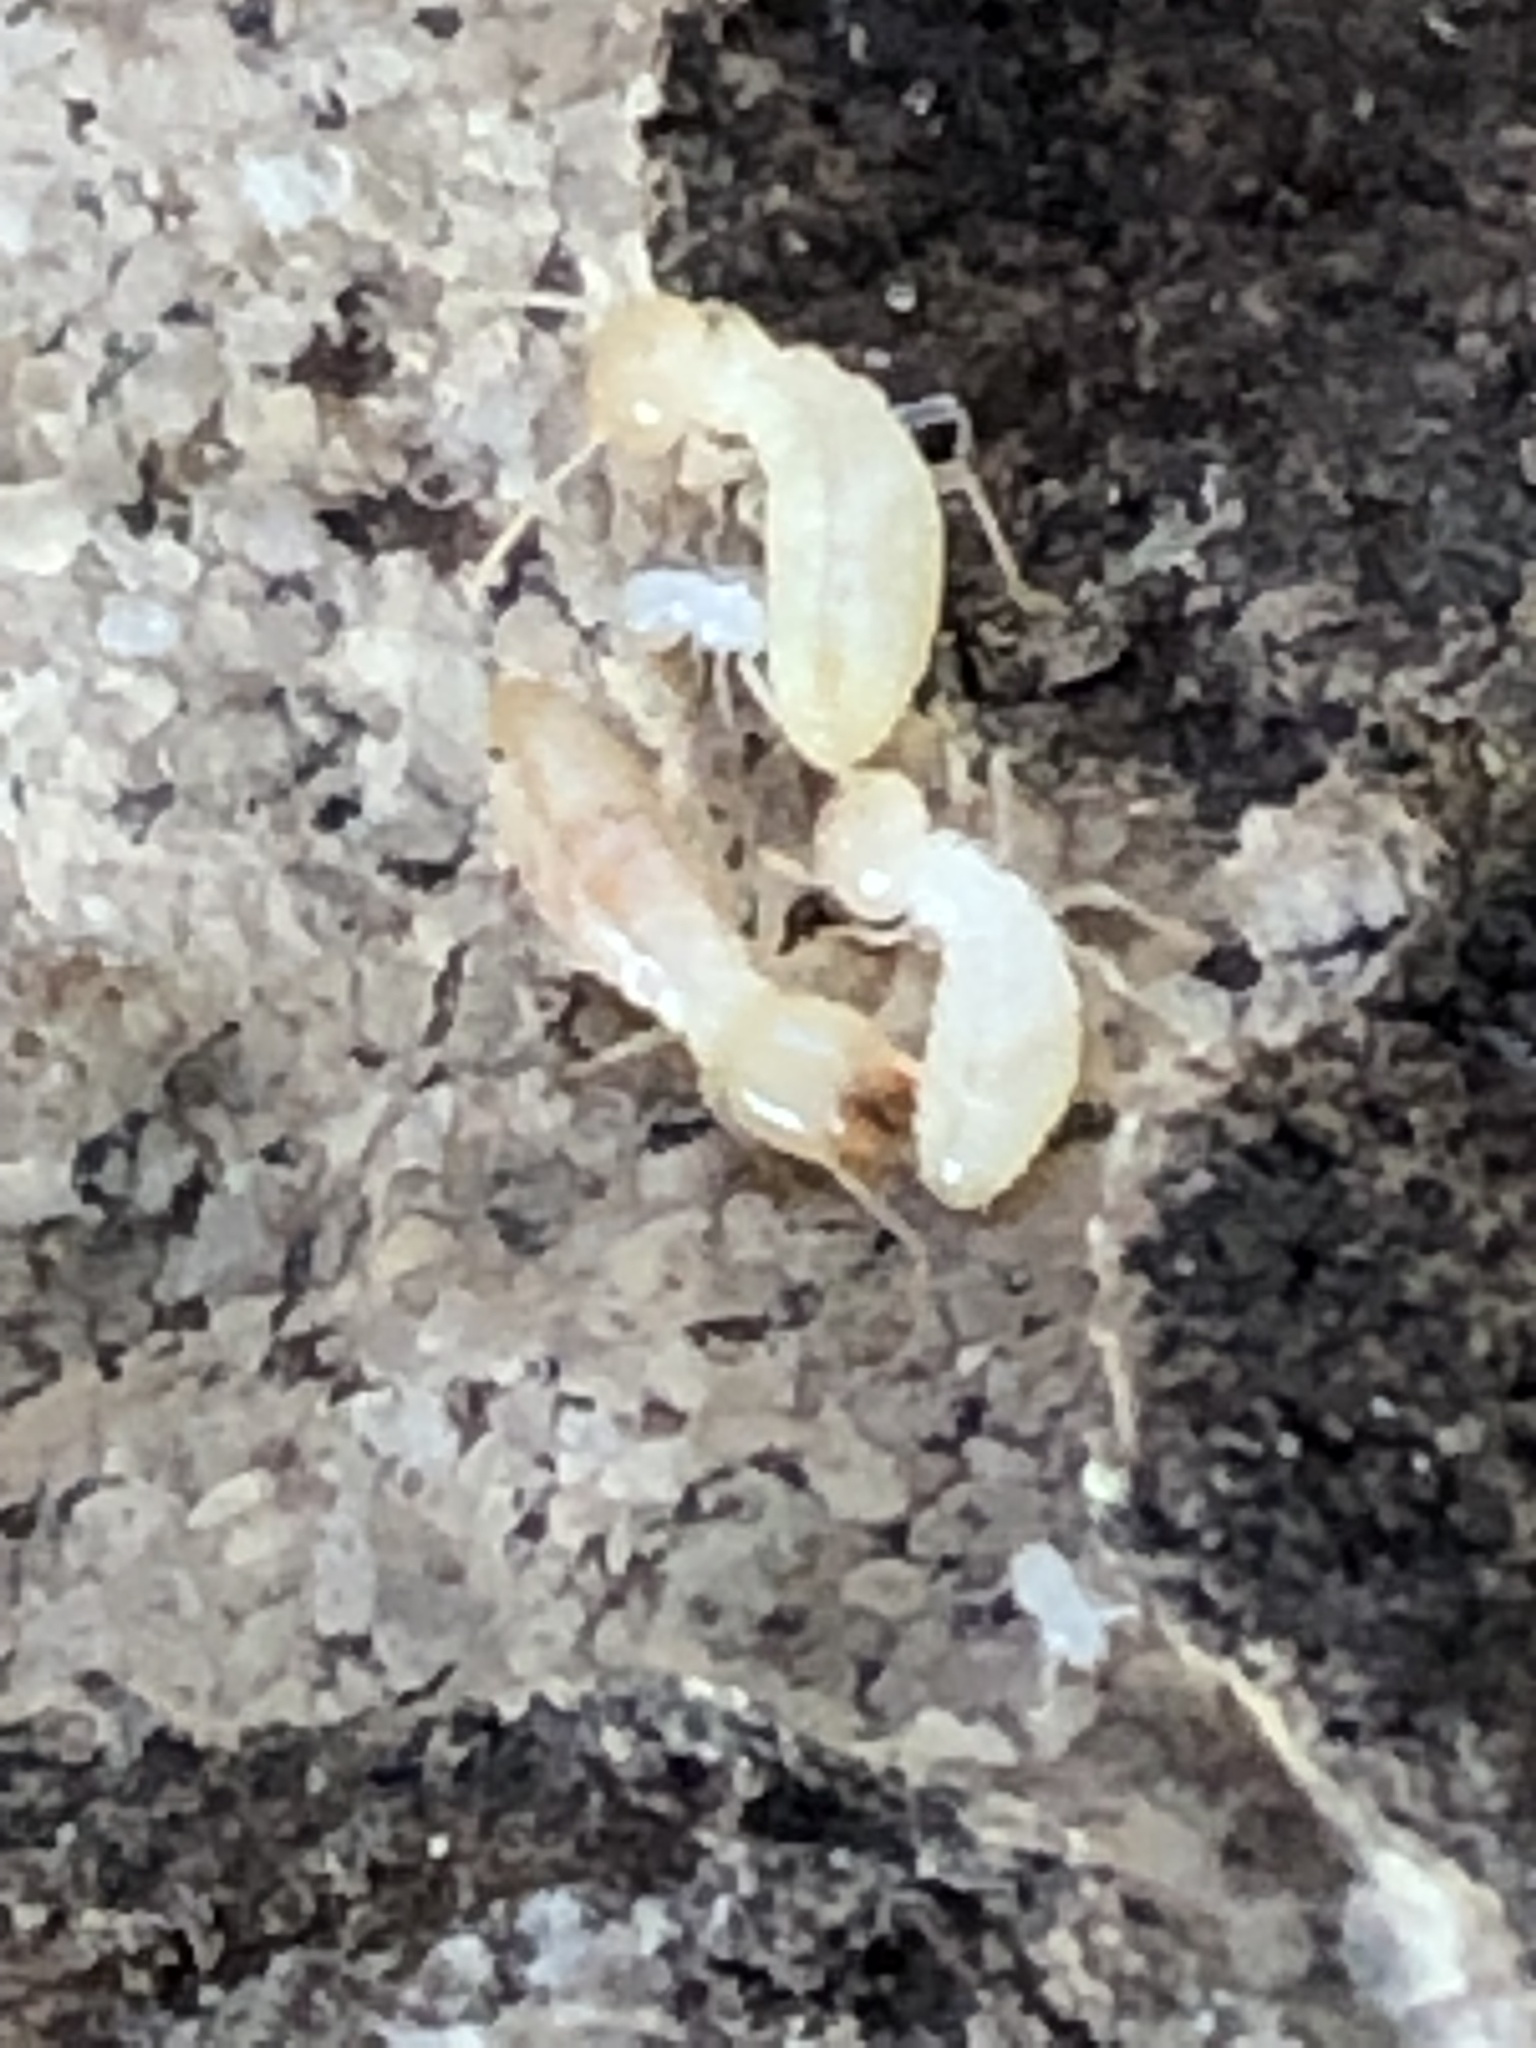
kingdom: Animalia
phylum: Arthropoda
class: Insecta
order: Blattodea
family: Rhinotermitidae
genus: Reticulitermes
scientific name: Reticulitermes flavipes
